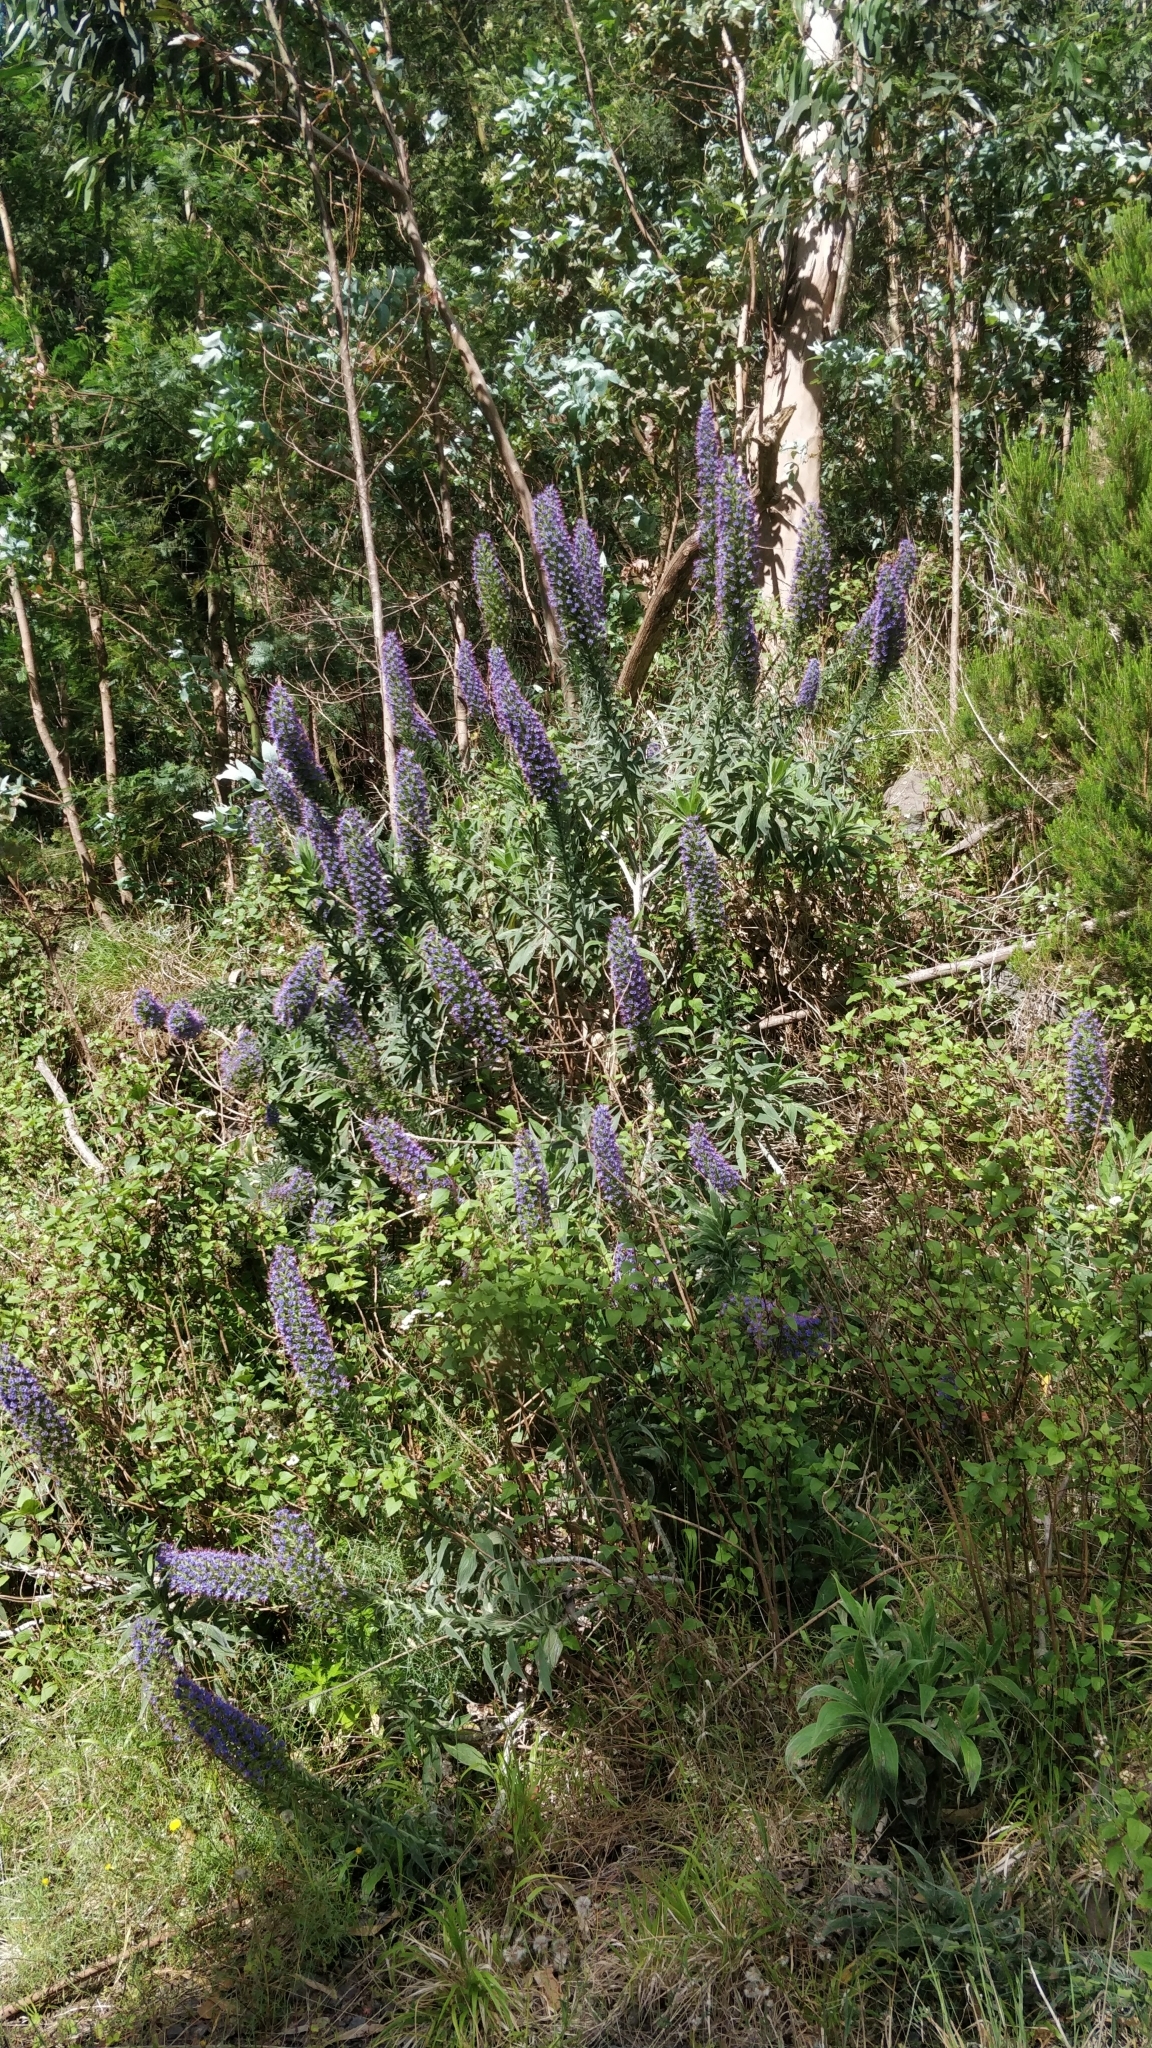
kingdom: Plantae
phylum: Tracheophyta
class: Magnoliopsida
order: Boraginales
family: Boraginaceae
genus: Echium
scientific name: Echium candicans
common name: Pride of madeira
